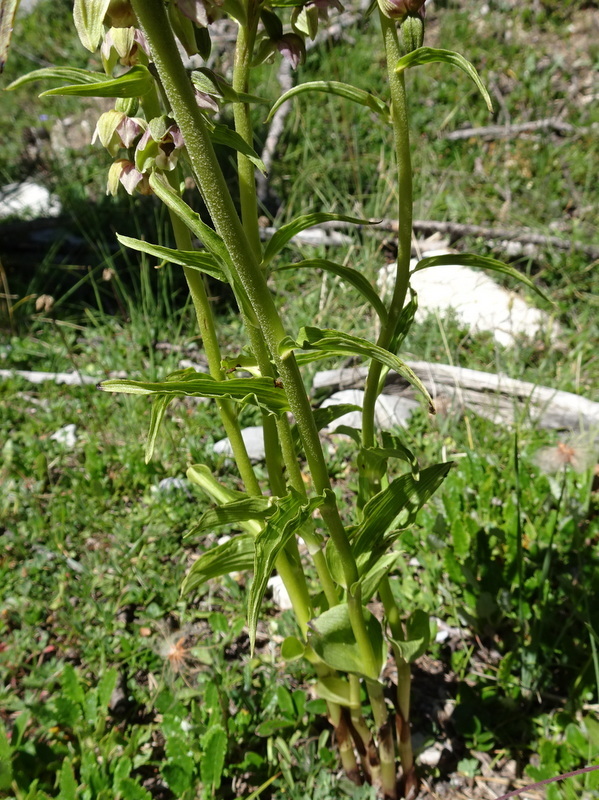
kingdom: Plantae
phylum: Tracheophyta
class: Liliopsida
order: Asparagales
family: Orchidaceae
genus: Epipactis
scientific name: Epipactis helleborine
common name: Broad-leaved helleborine
